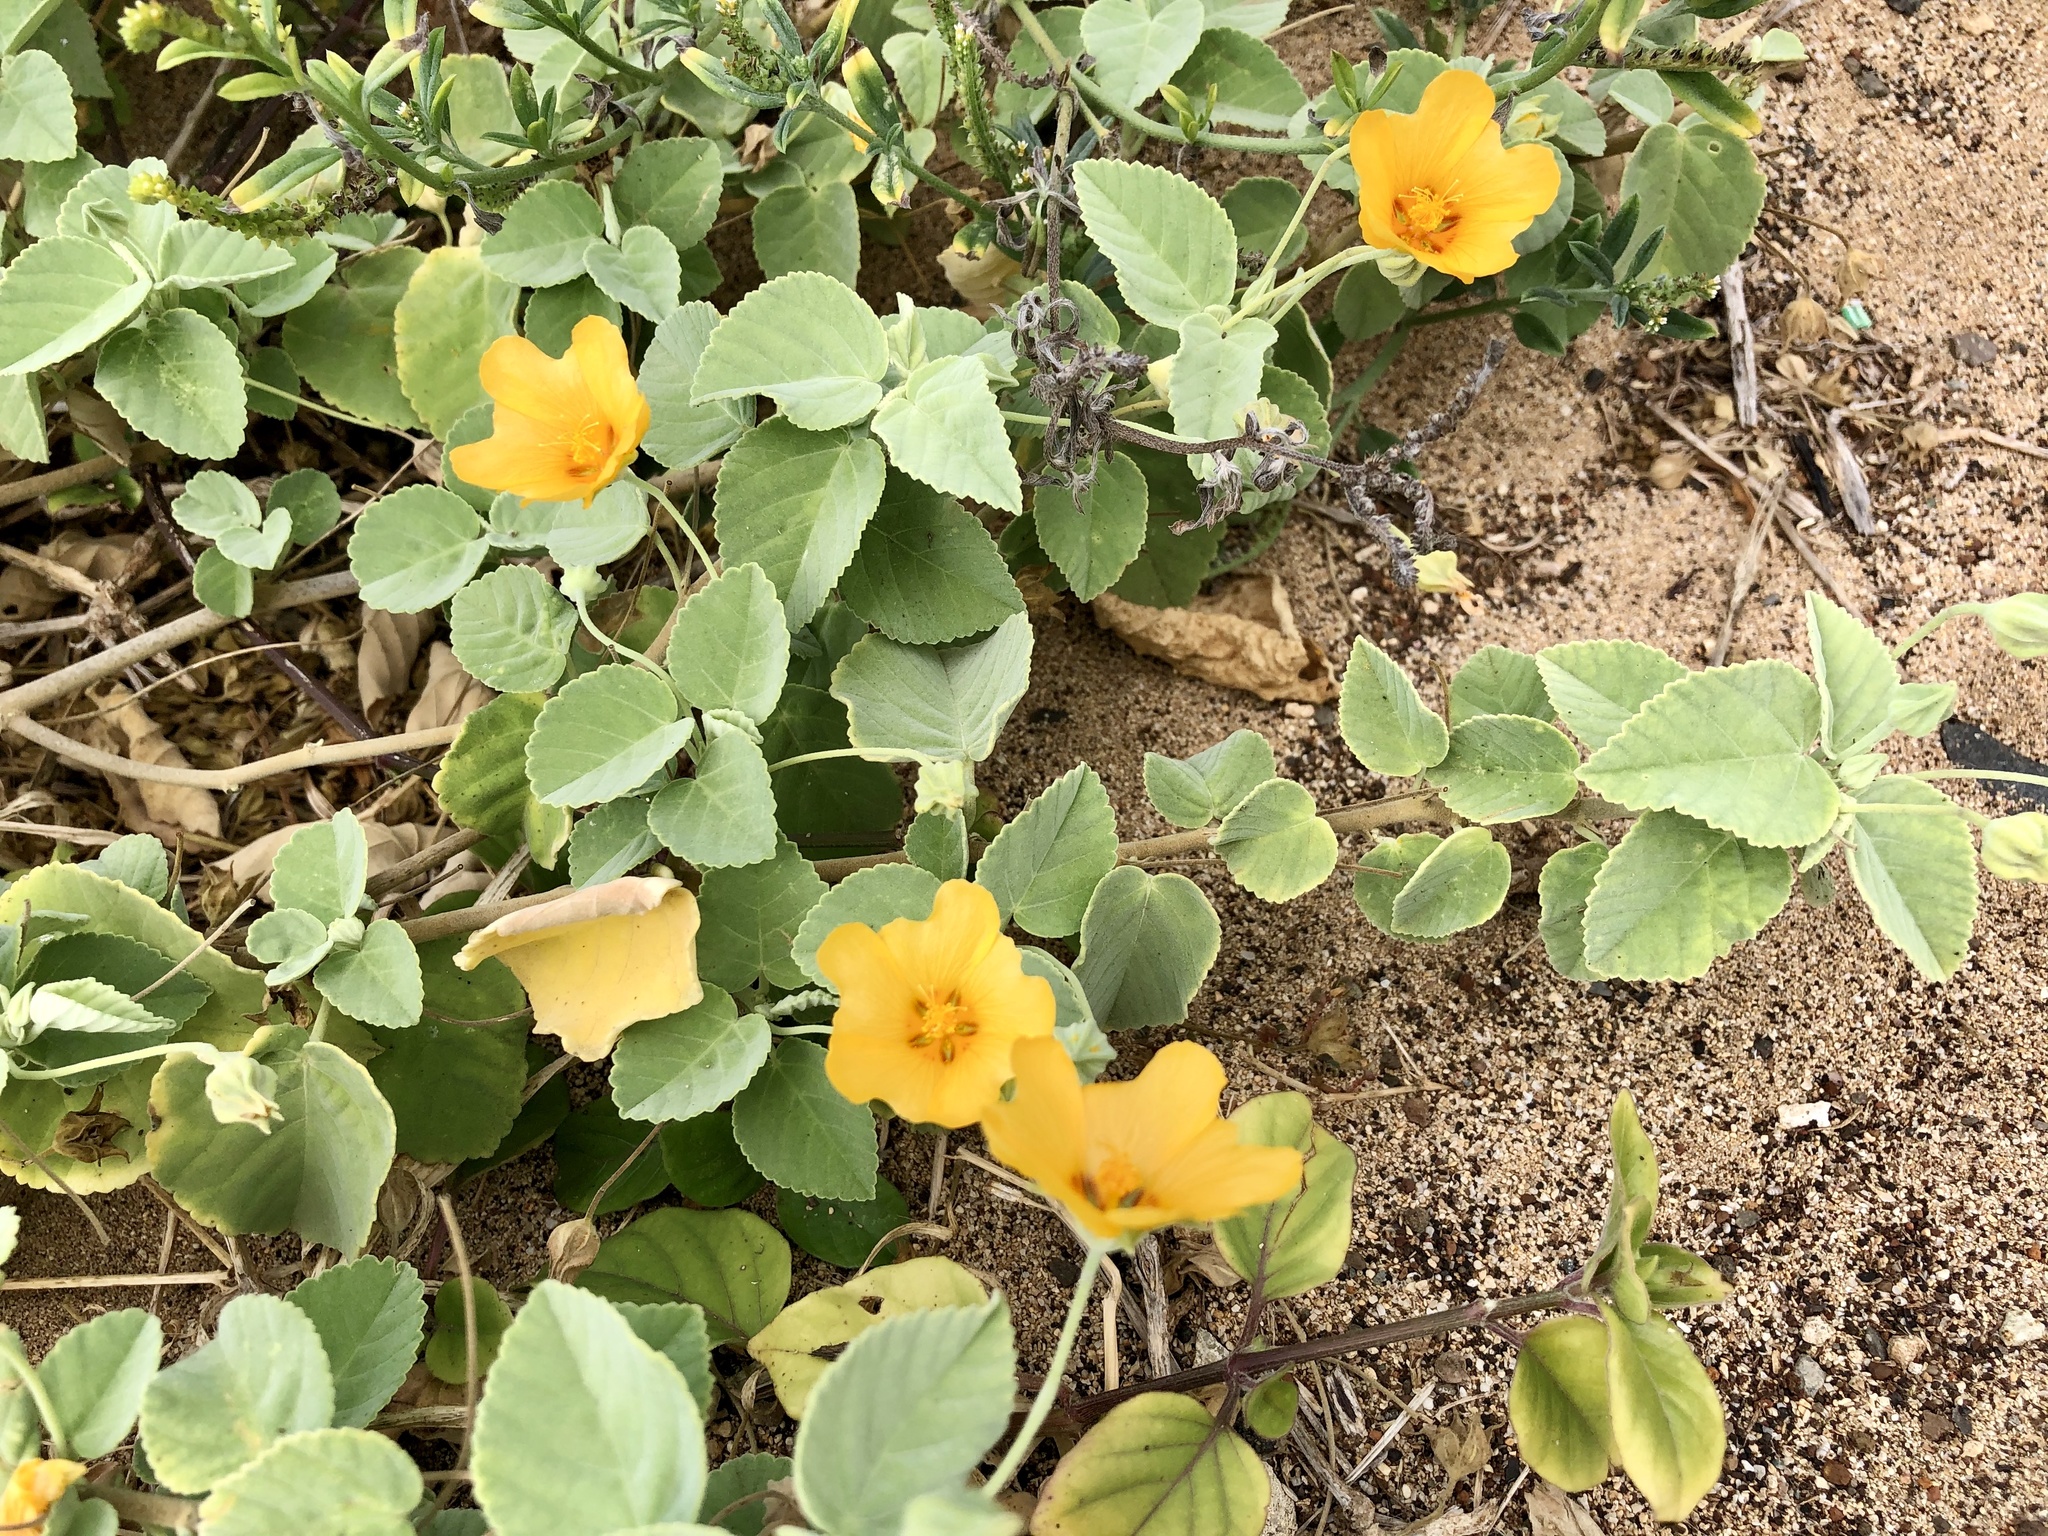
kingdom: Plantae
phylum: Tracheophyta
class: Magnoliopsida
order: Malvales
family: Malvaceae
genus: Sida
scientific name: Sida fallax
